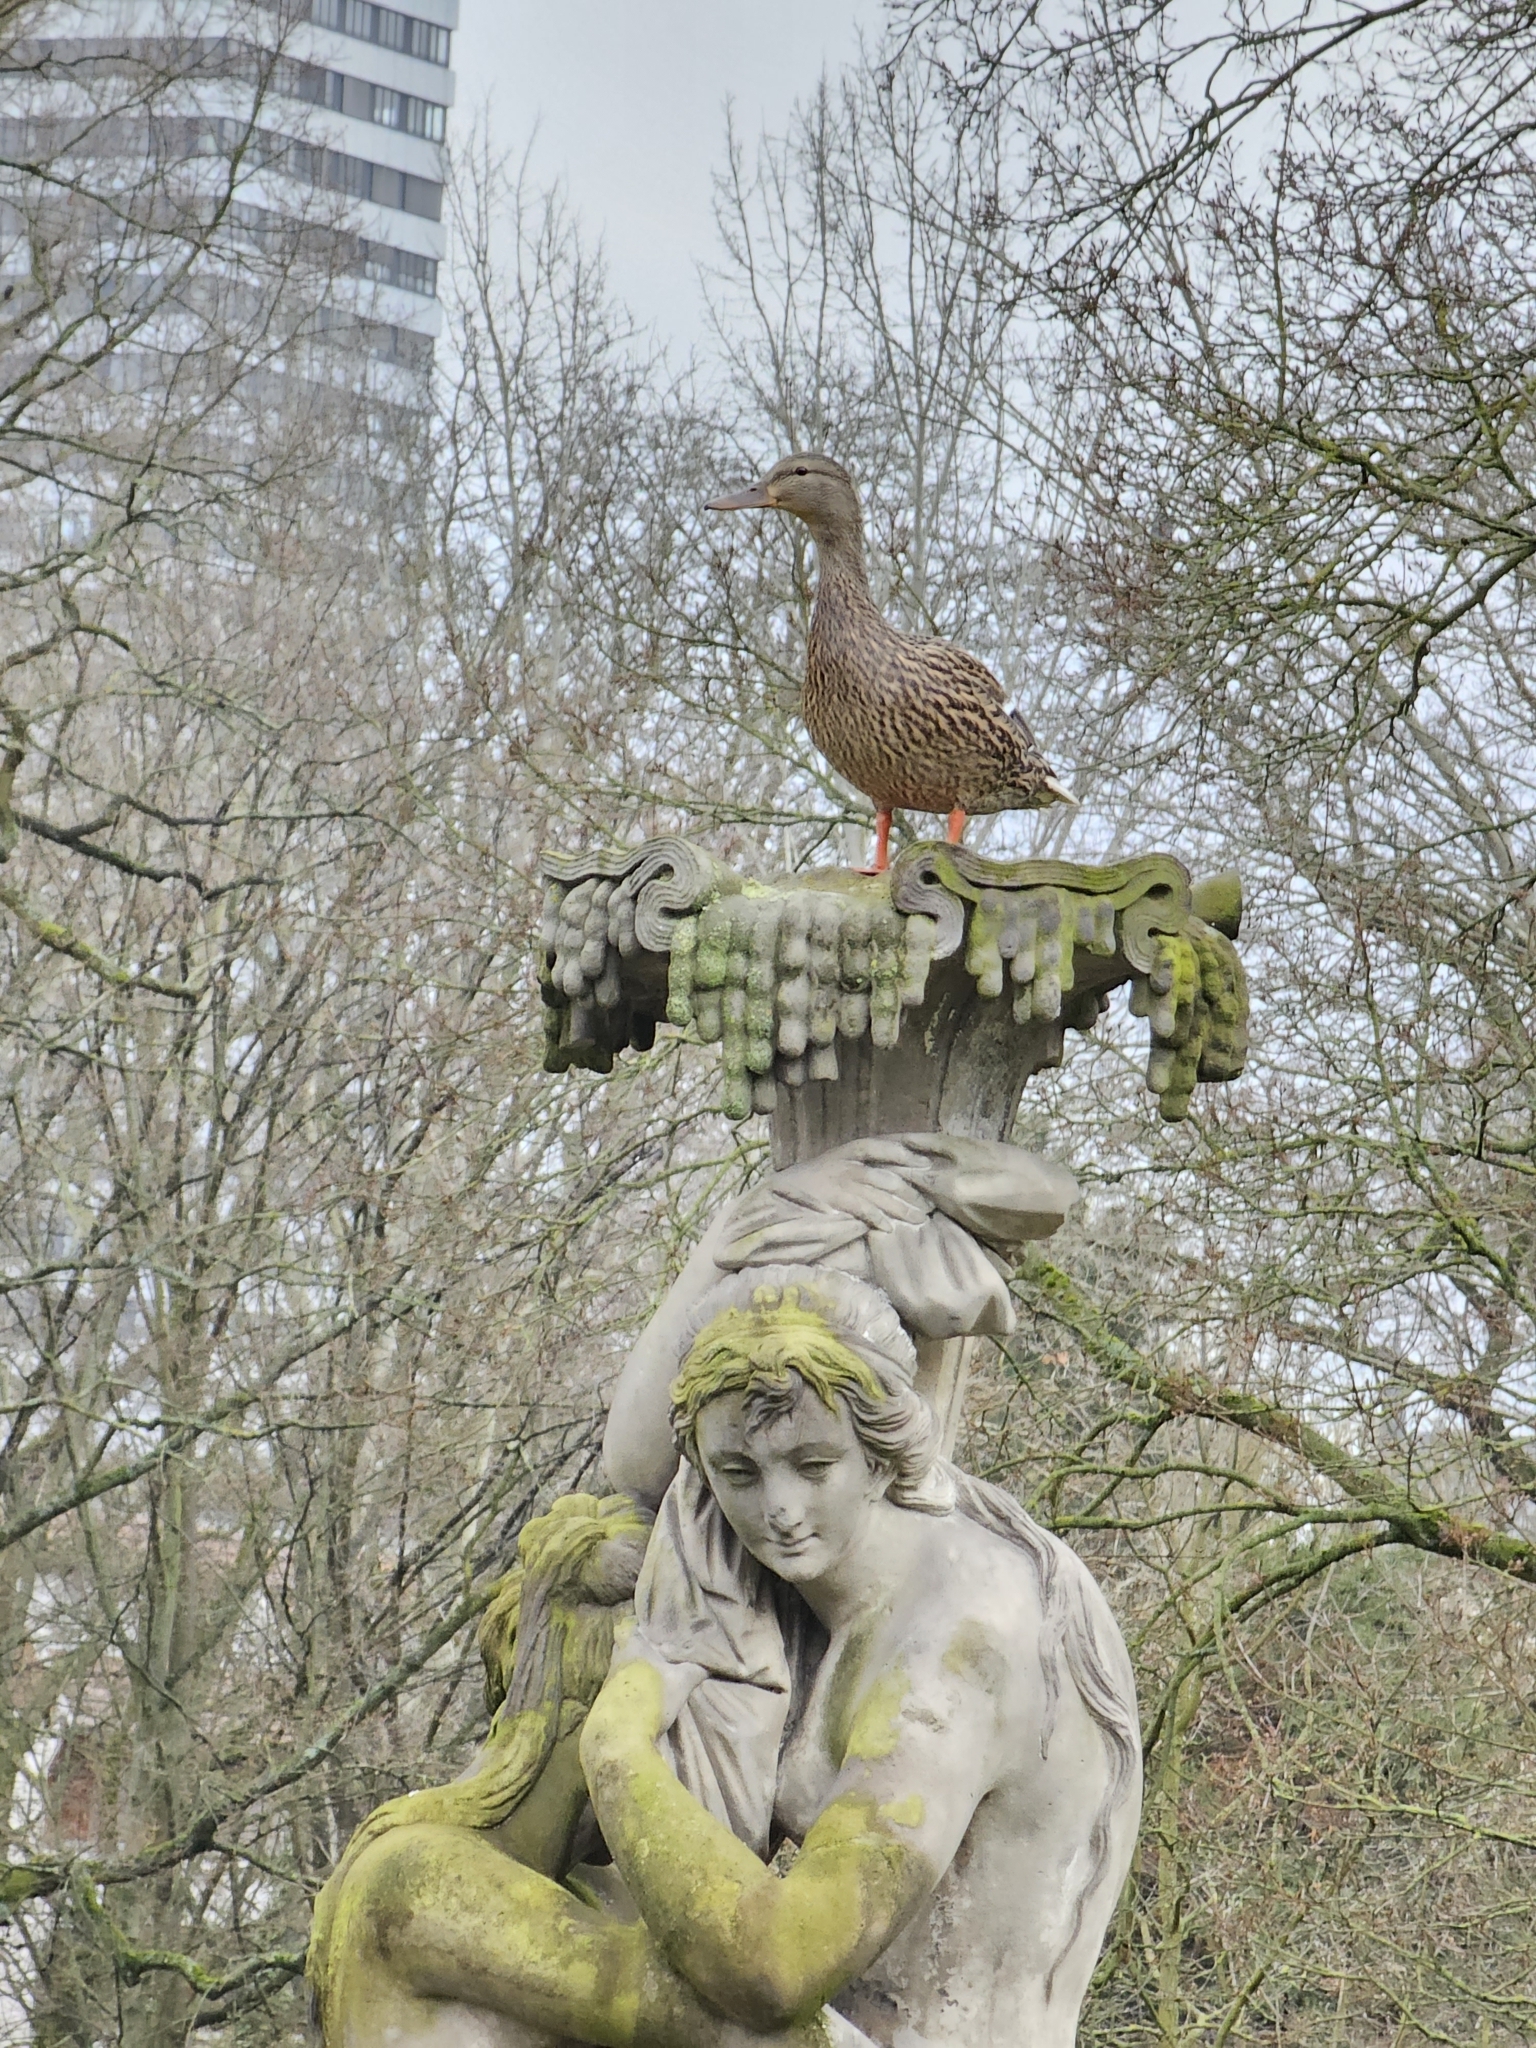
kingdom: Animalia
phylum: Chordata
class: Aves
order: Anseriformes
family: Anatidae
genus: Anas
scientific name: Anas platyrhynchos
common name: Mallard
